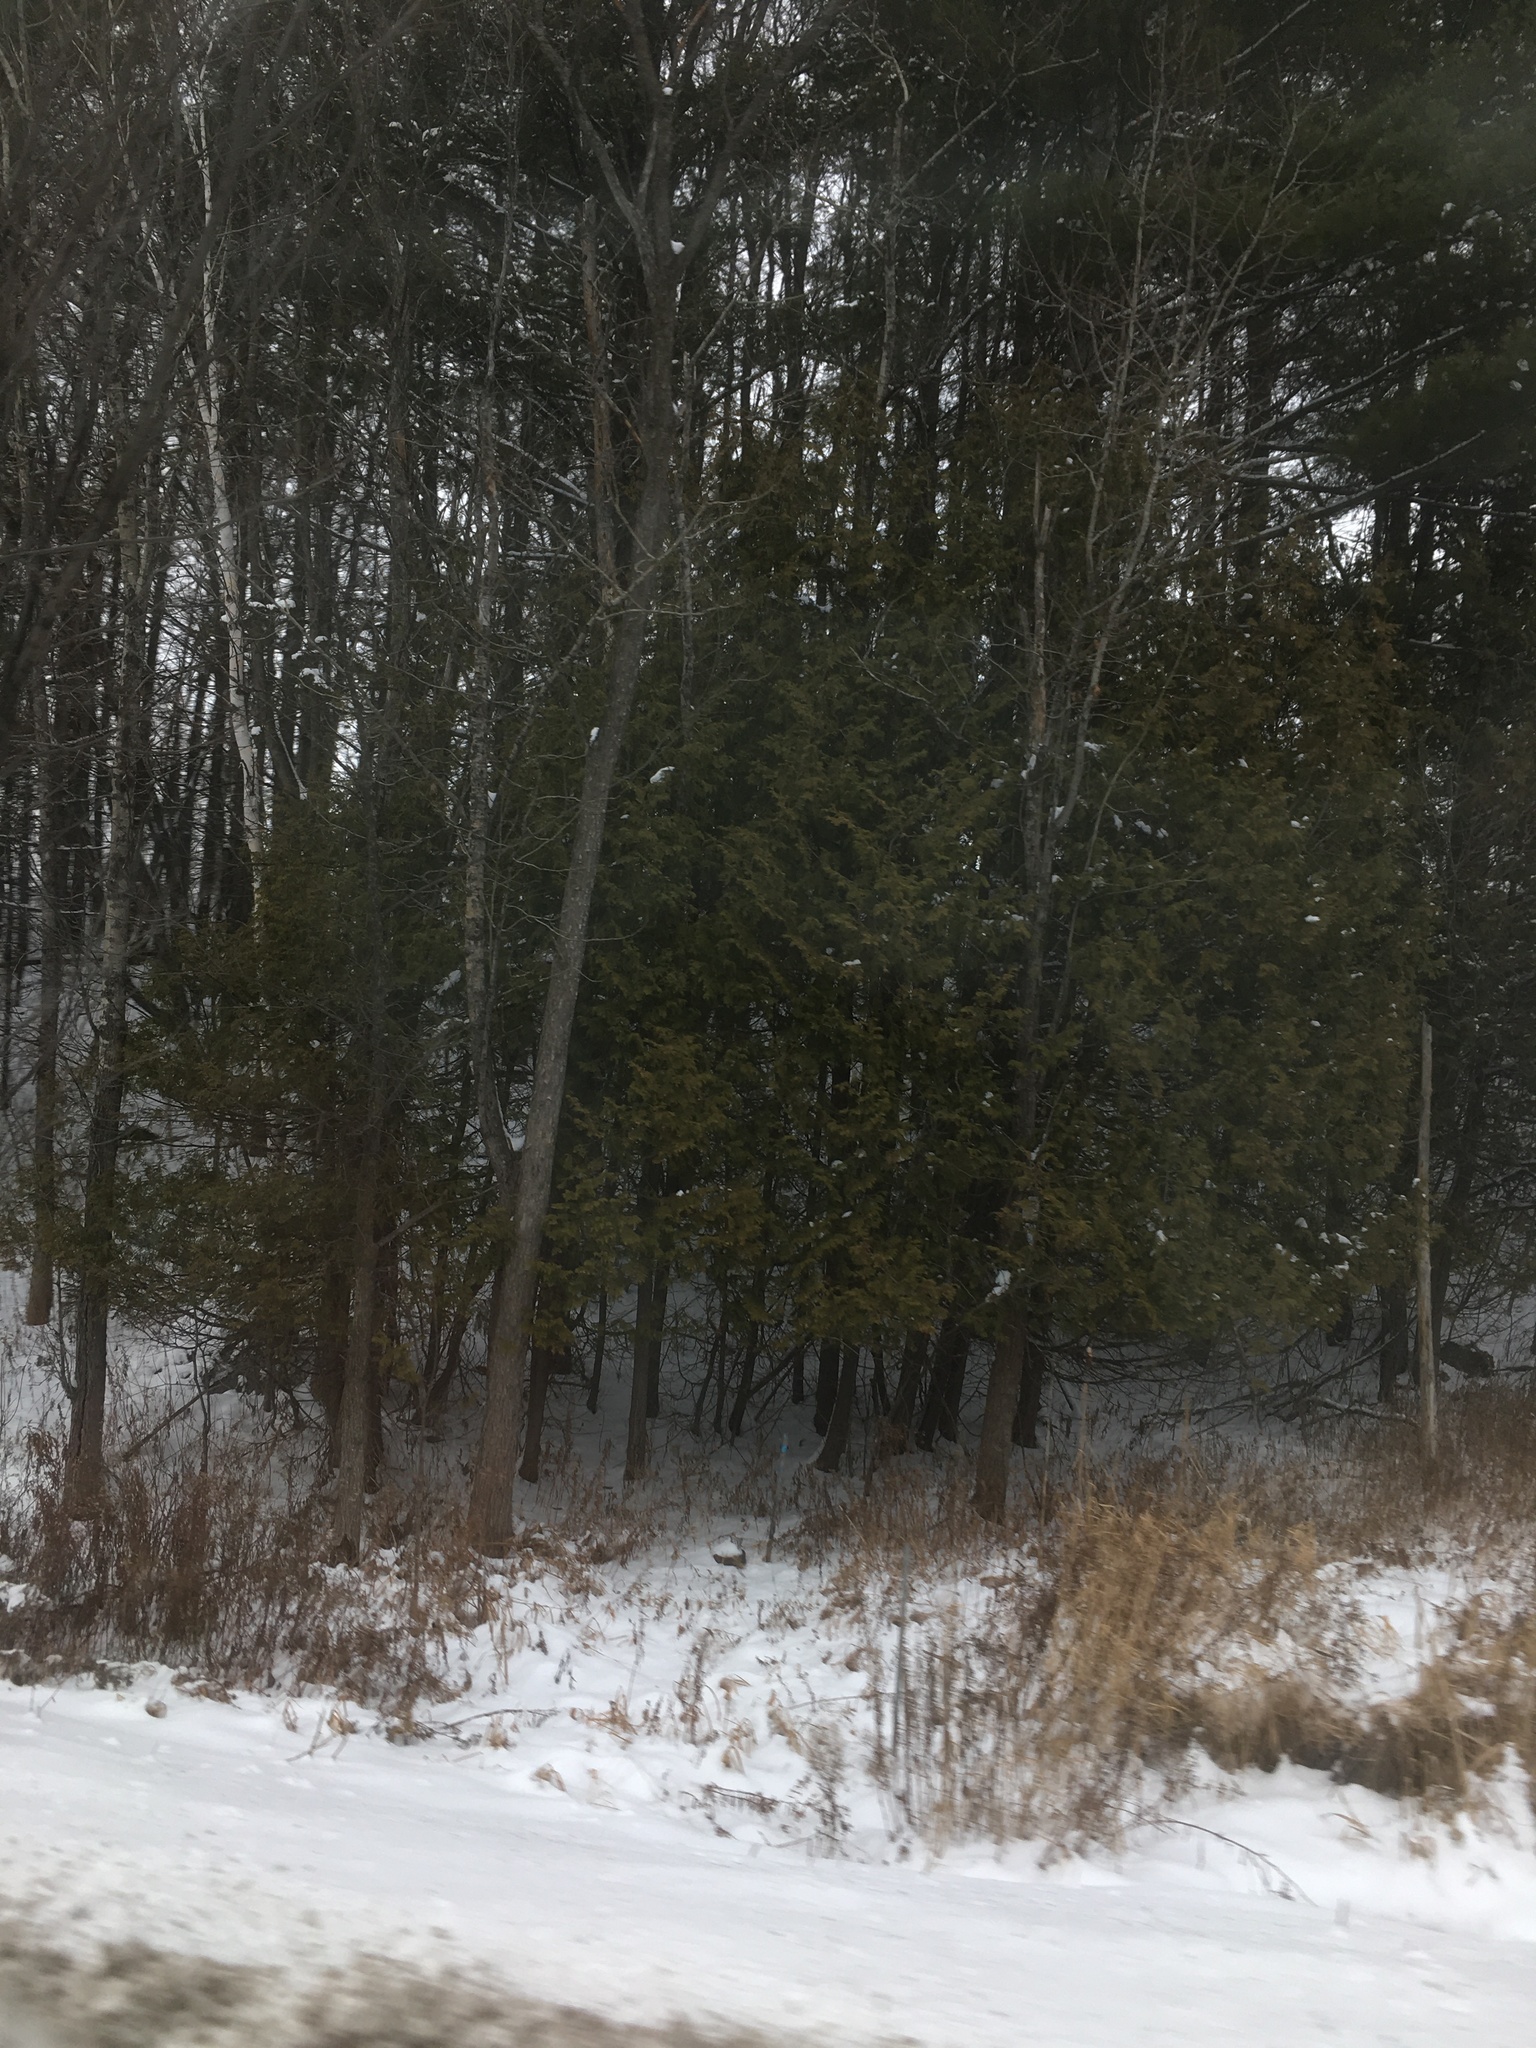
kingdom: Plantae
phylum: Tracheophyta
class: Pinopsida
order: Pinales
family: Cupressaceae
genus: Thuja
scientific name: Thuja occidentalis
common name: Northern white-cedar
